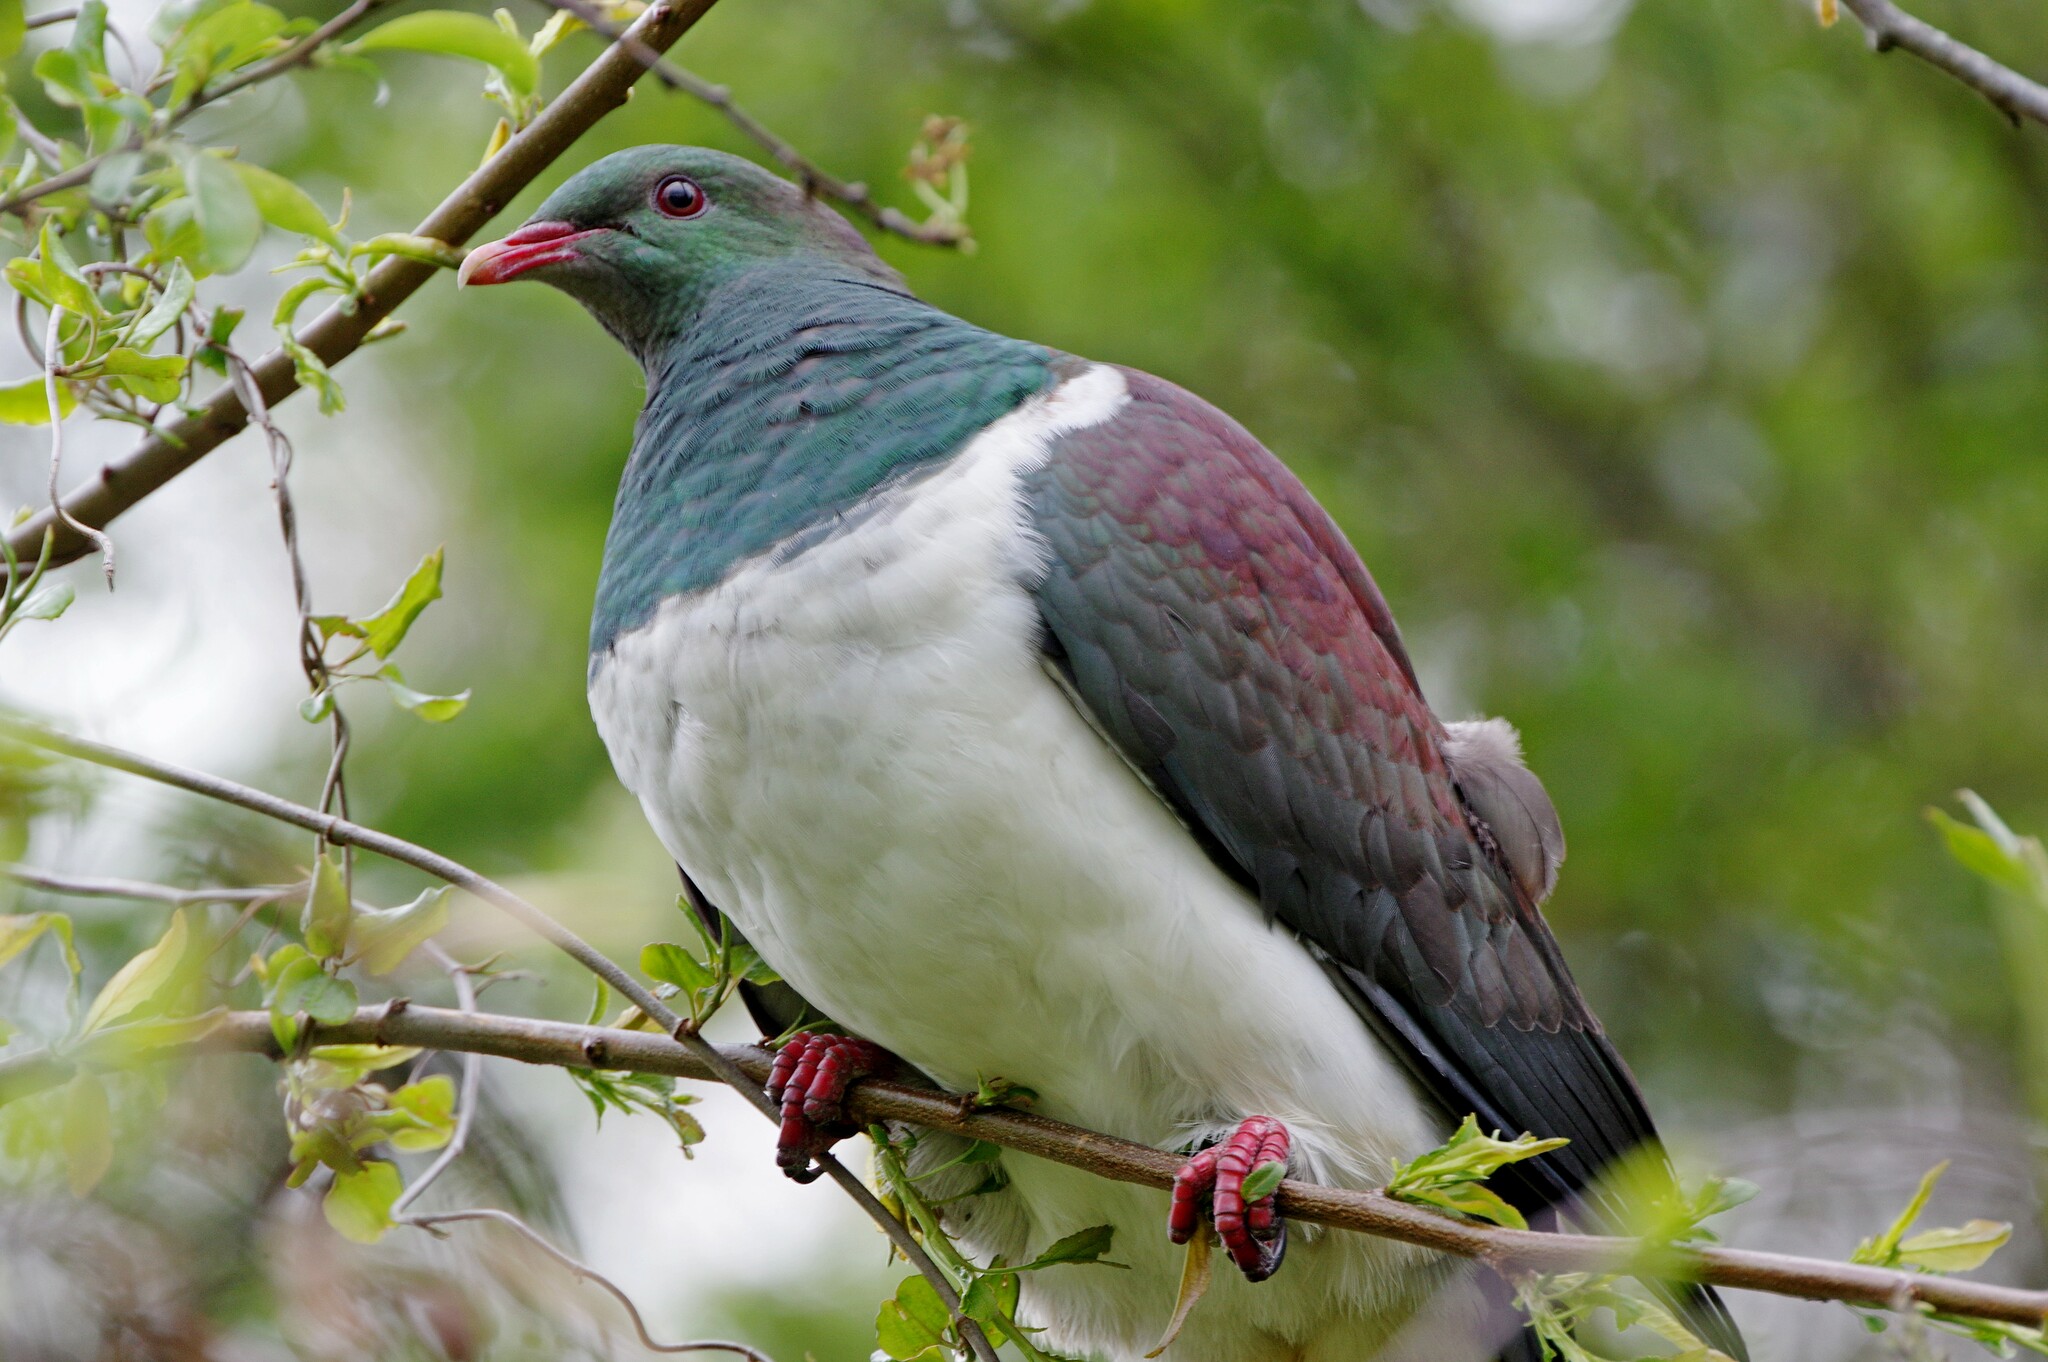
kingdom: Animalia
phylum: Chordata
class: Aves
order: Columbiformes
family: Columbidae
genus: Hemiphaga
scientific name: Hemiphaga novaeseelandiae
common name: New zealand pigeon
